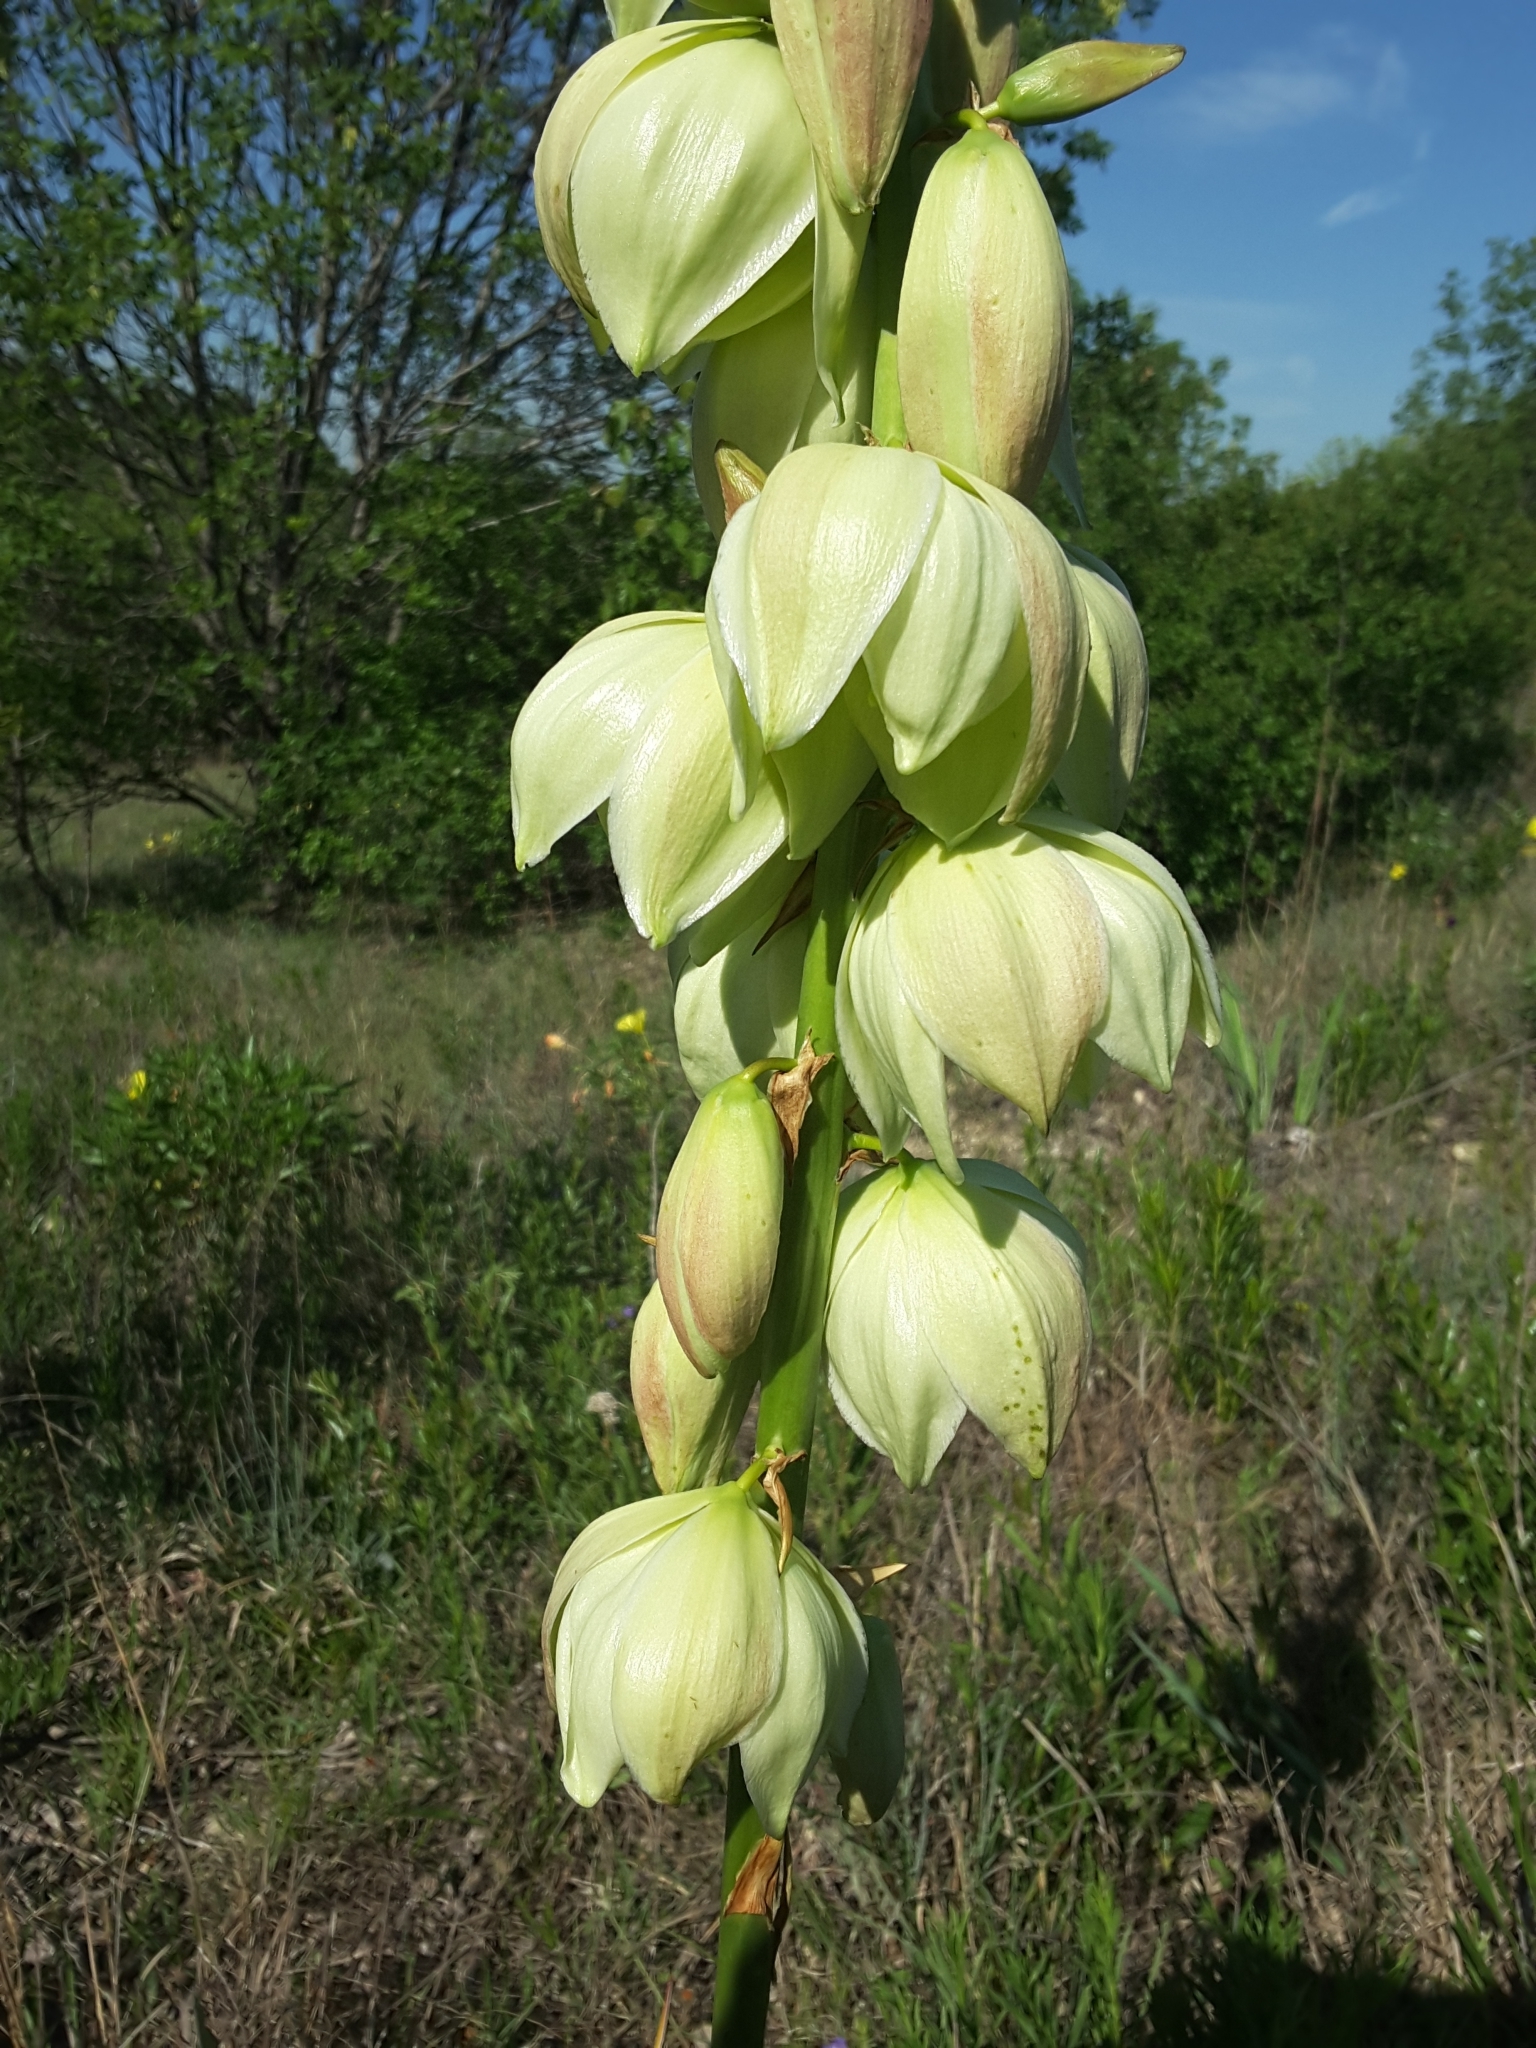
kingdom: Plantae
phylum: Tracheophyta
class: Liliopsida
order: Asparagales
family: Asparagaceae
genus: Yucca
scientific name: Yucca arkansana
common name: Arkansas yucca
